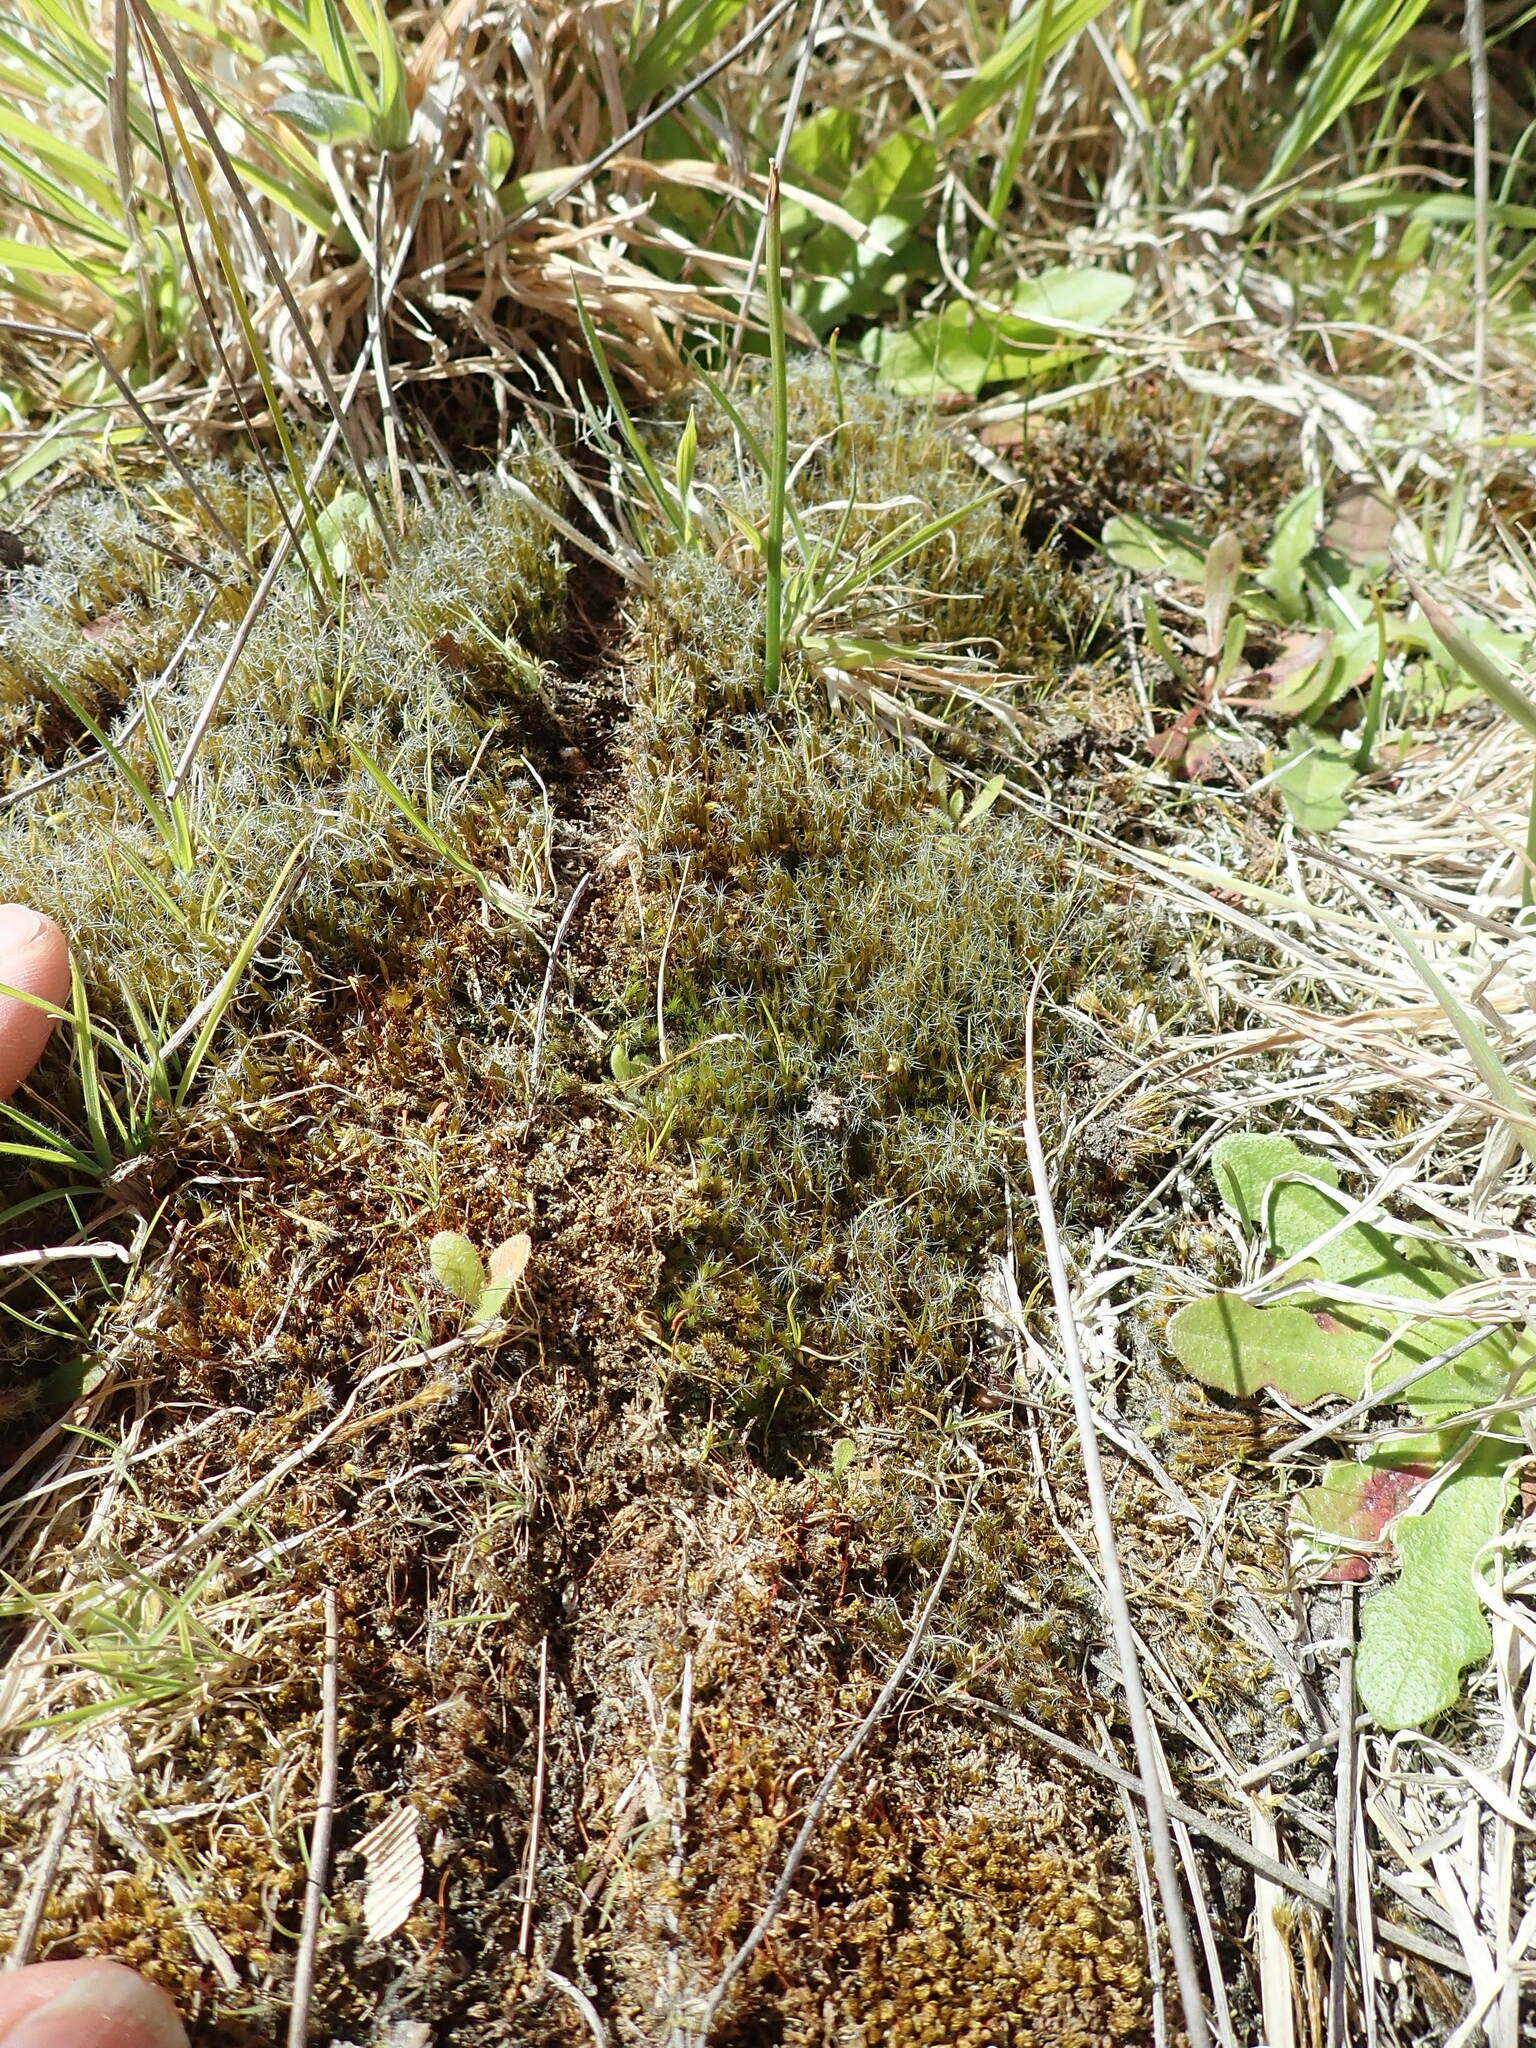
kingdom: Plantae
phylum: Bryophyta
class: Bryopsida
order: Dicranales
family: Leucobryaceae
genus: Campylopus
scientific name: Campylopus introflexus
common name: Heath star moss
